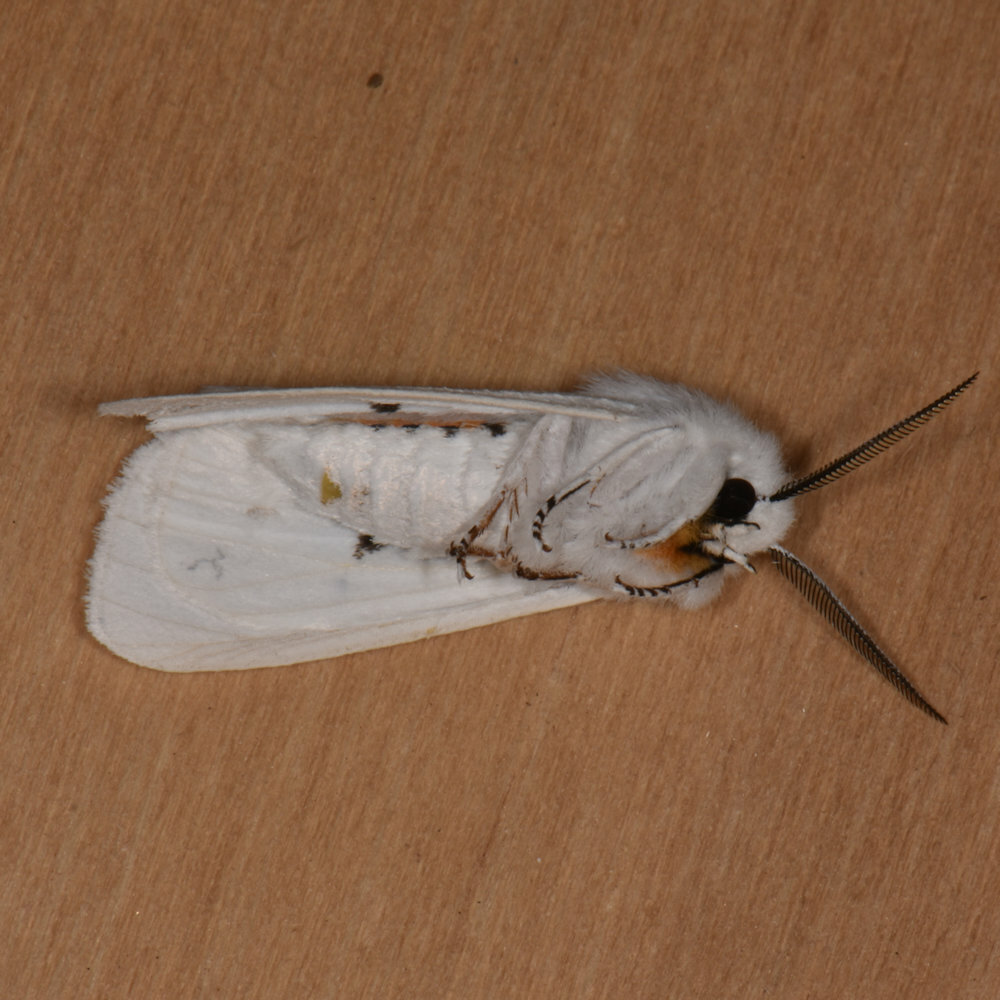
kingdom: Animalia
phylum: Arthropoda
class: Insecta
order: Lepidoptera
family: Erebidae
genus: Spilosoma
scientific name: Spilosoma virginica
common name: Virginia tiger moth
